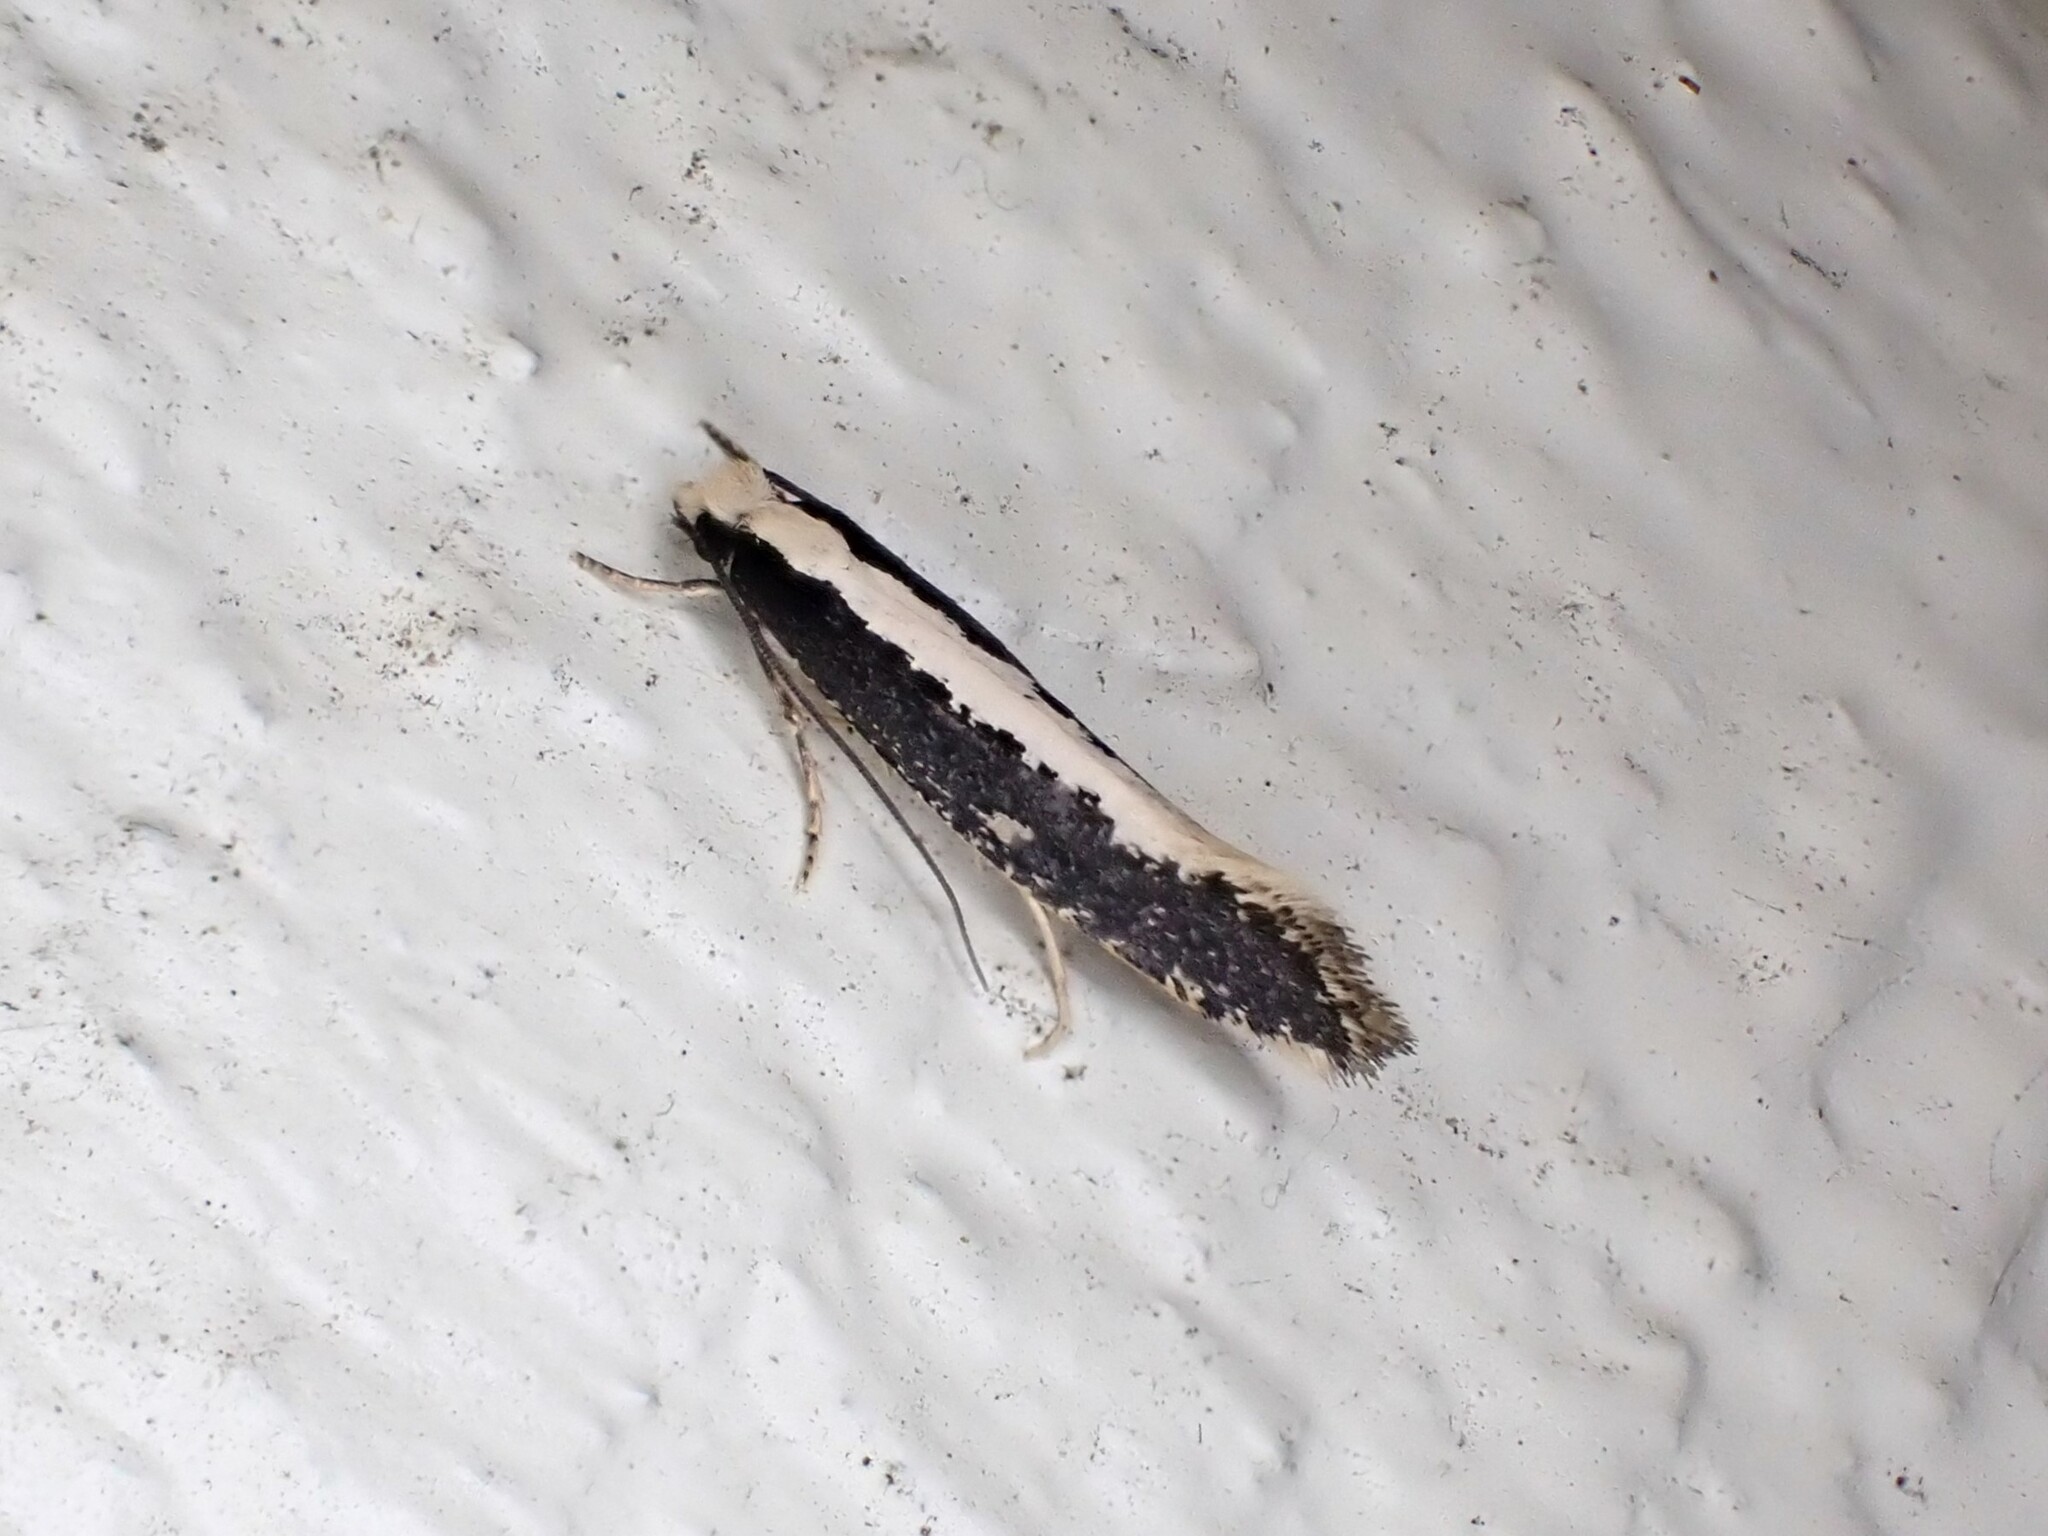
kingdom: Animalia
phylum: Arthropoda
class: Insecta
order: Lepidoptera
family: Tineidae
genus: Monopis
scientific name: Monopis ethelella
